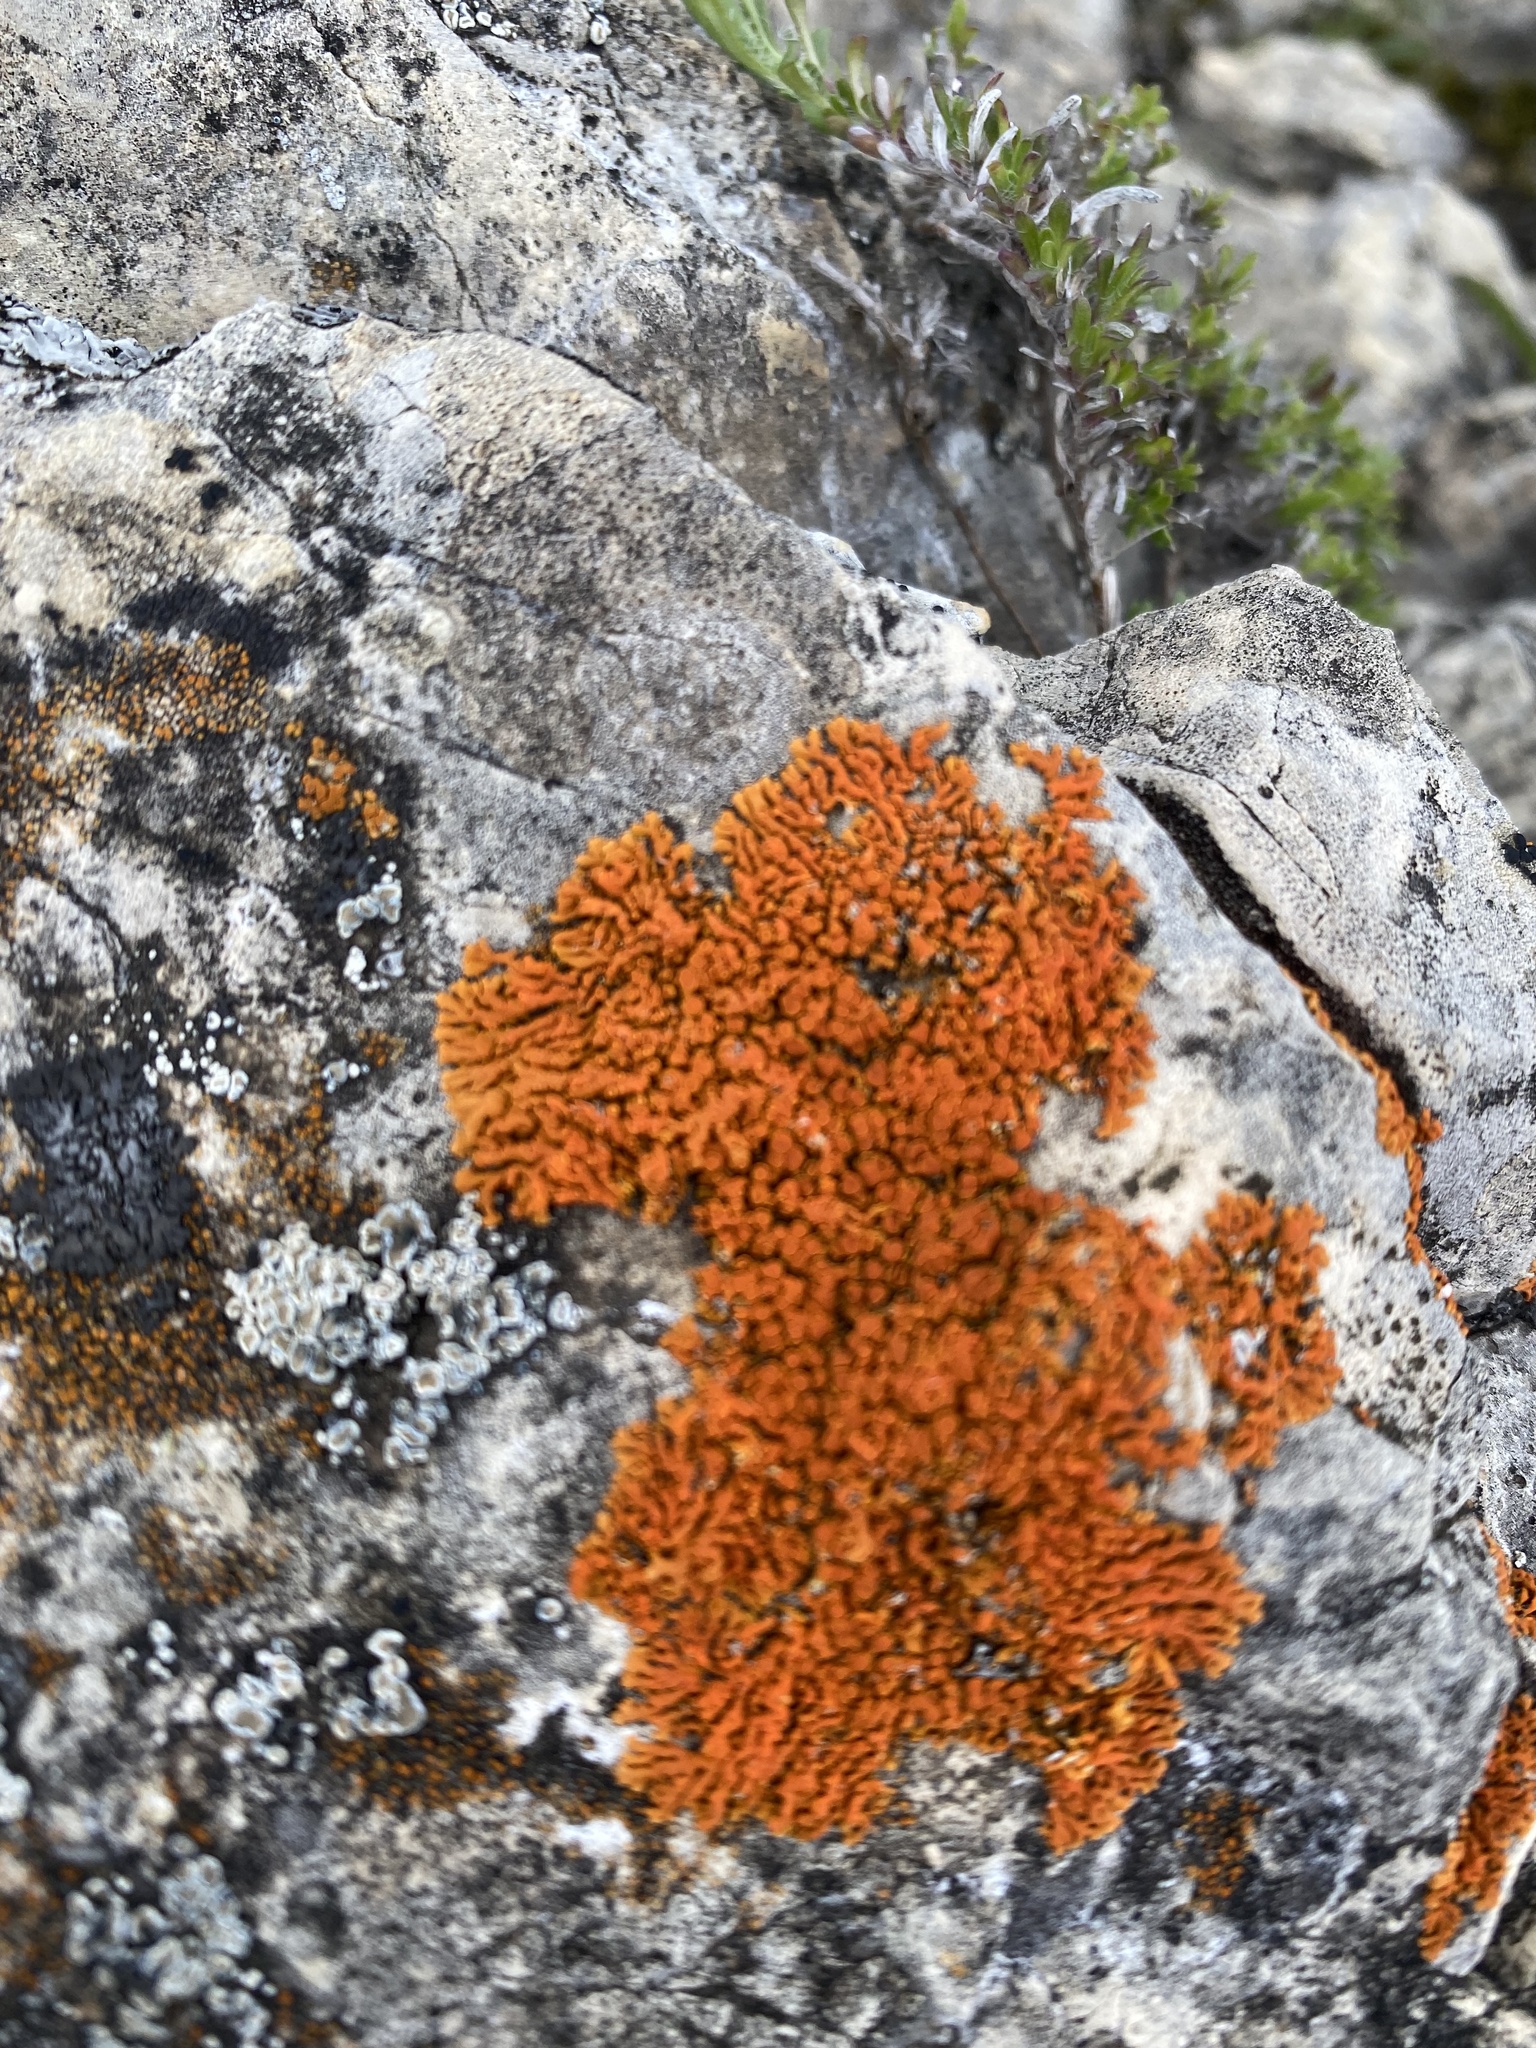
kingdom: Fungi
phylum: Ascomycota
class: Lecanoromycetes
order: Teloschistales
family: Teloschistaceae
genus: Xanthoria
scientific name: Xanthoria elegans
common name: Elegant sunburst lichen
